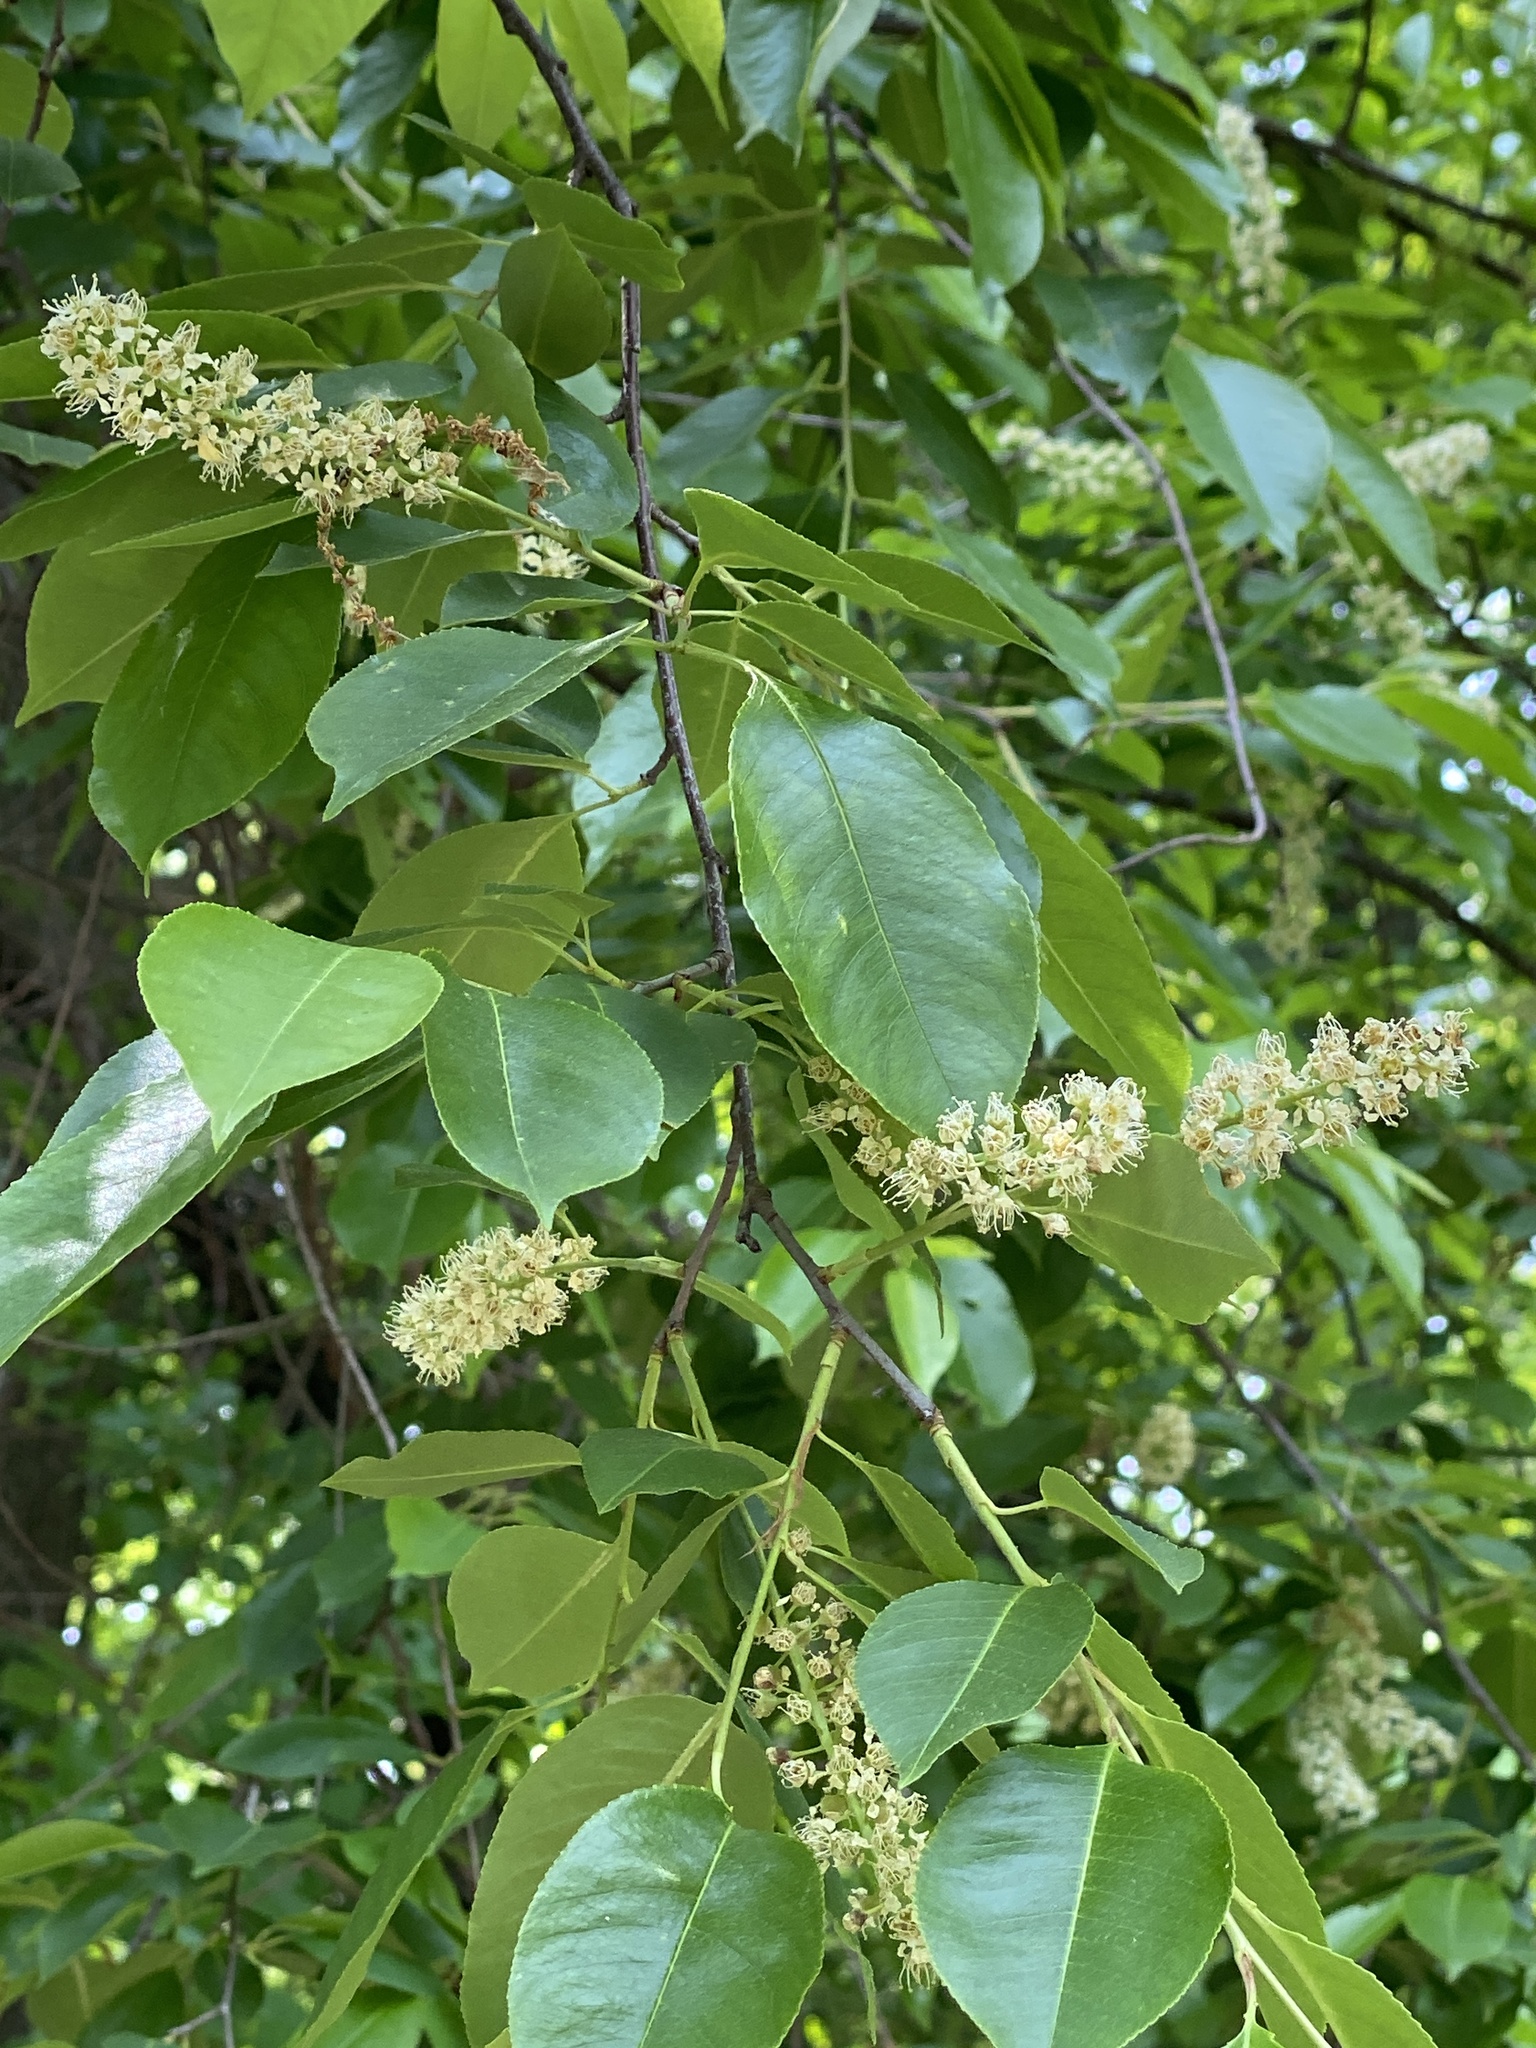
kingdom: Plantae
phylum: Tracheophyta
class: Magnoliopsida
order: Rosales
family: Rosaceae
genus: Prunus
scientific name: Prunus serotina
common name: Black cherry
